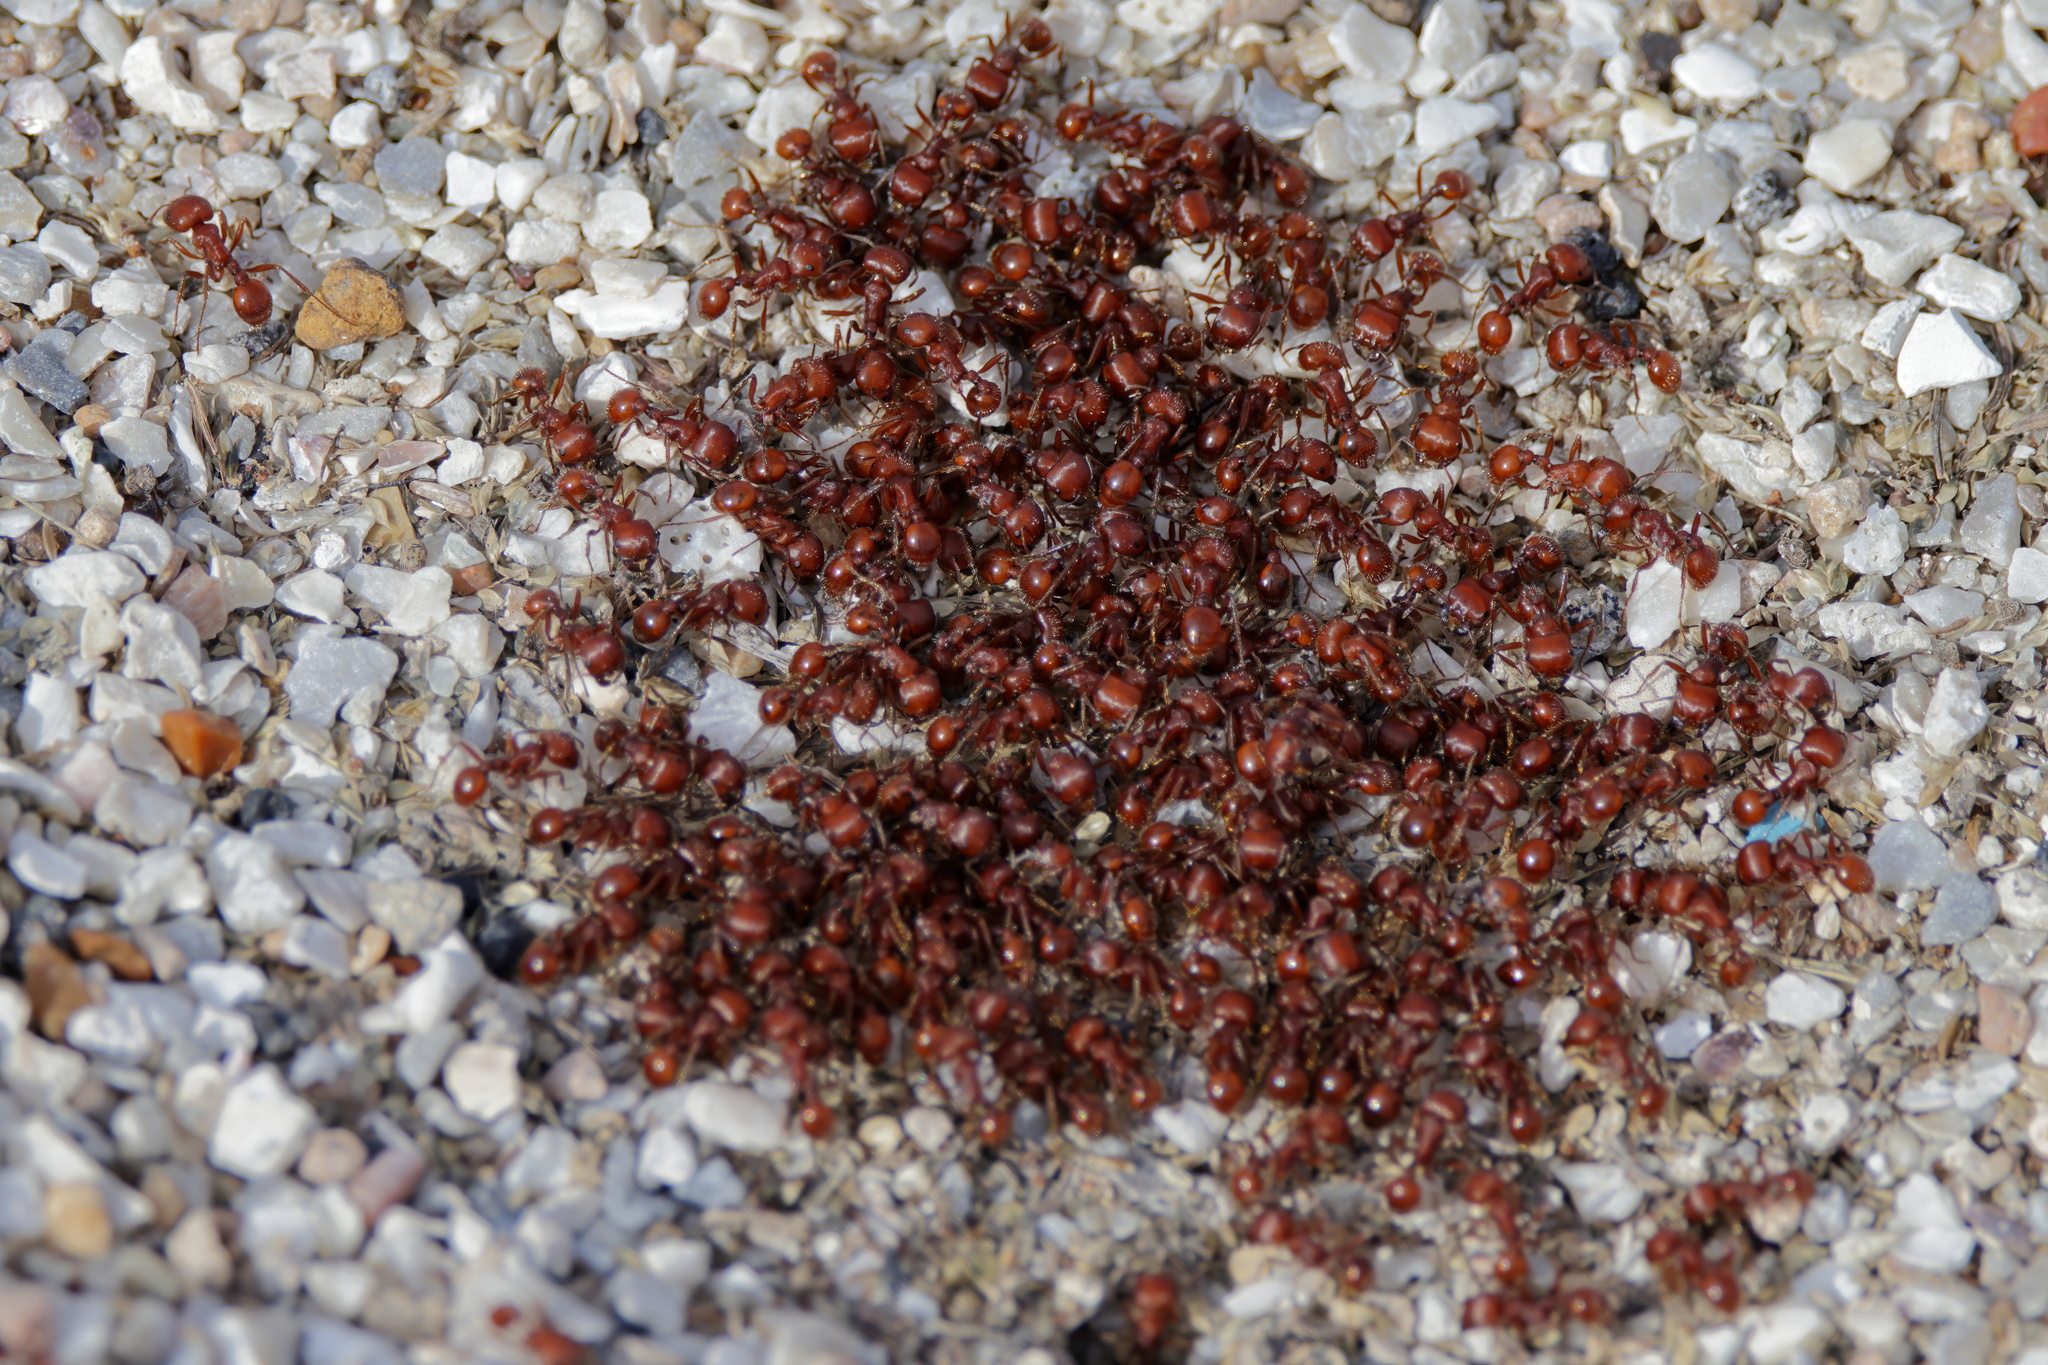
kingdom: Animalia
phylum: Arthropoda
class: Insecta
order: Hymenoptera
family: Formicidae
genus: Pogonomyrmex
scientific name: Pogonomyrmex barbatus
